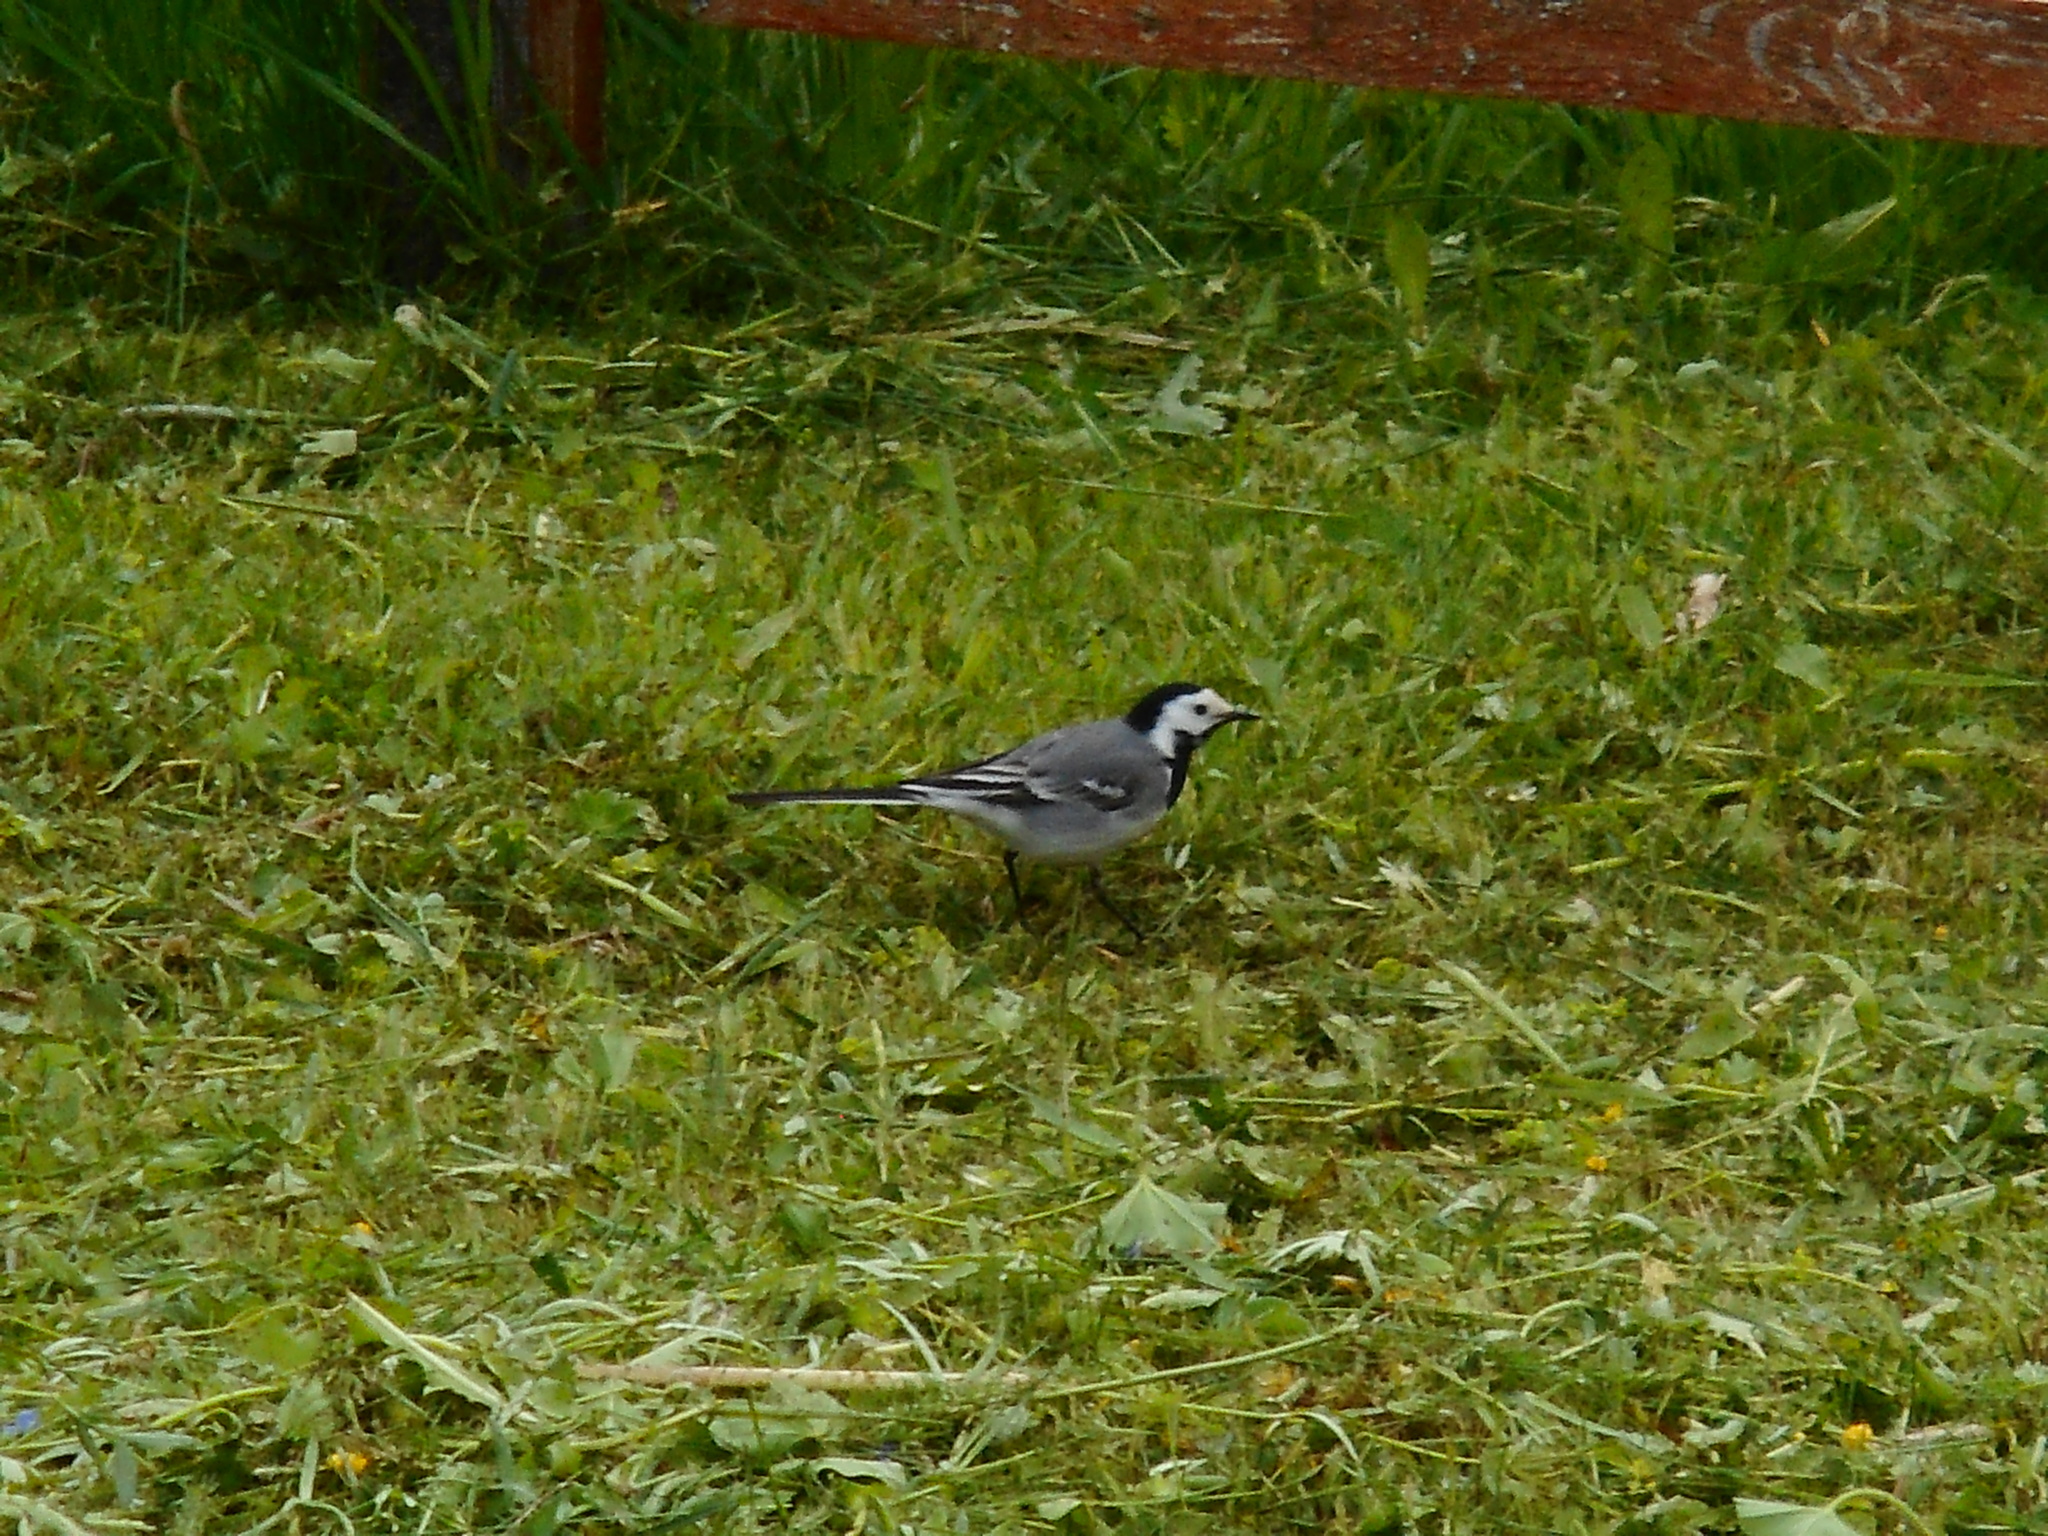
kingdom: Animalia
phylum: Chordata
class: Aves
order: Passeriformes
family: Motacillidae
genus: Motacilla
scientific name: Motacilla alba
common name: White wagtail
